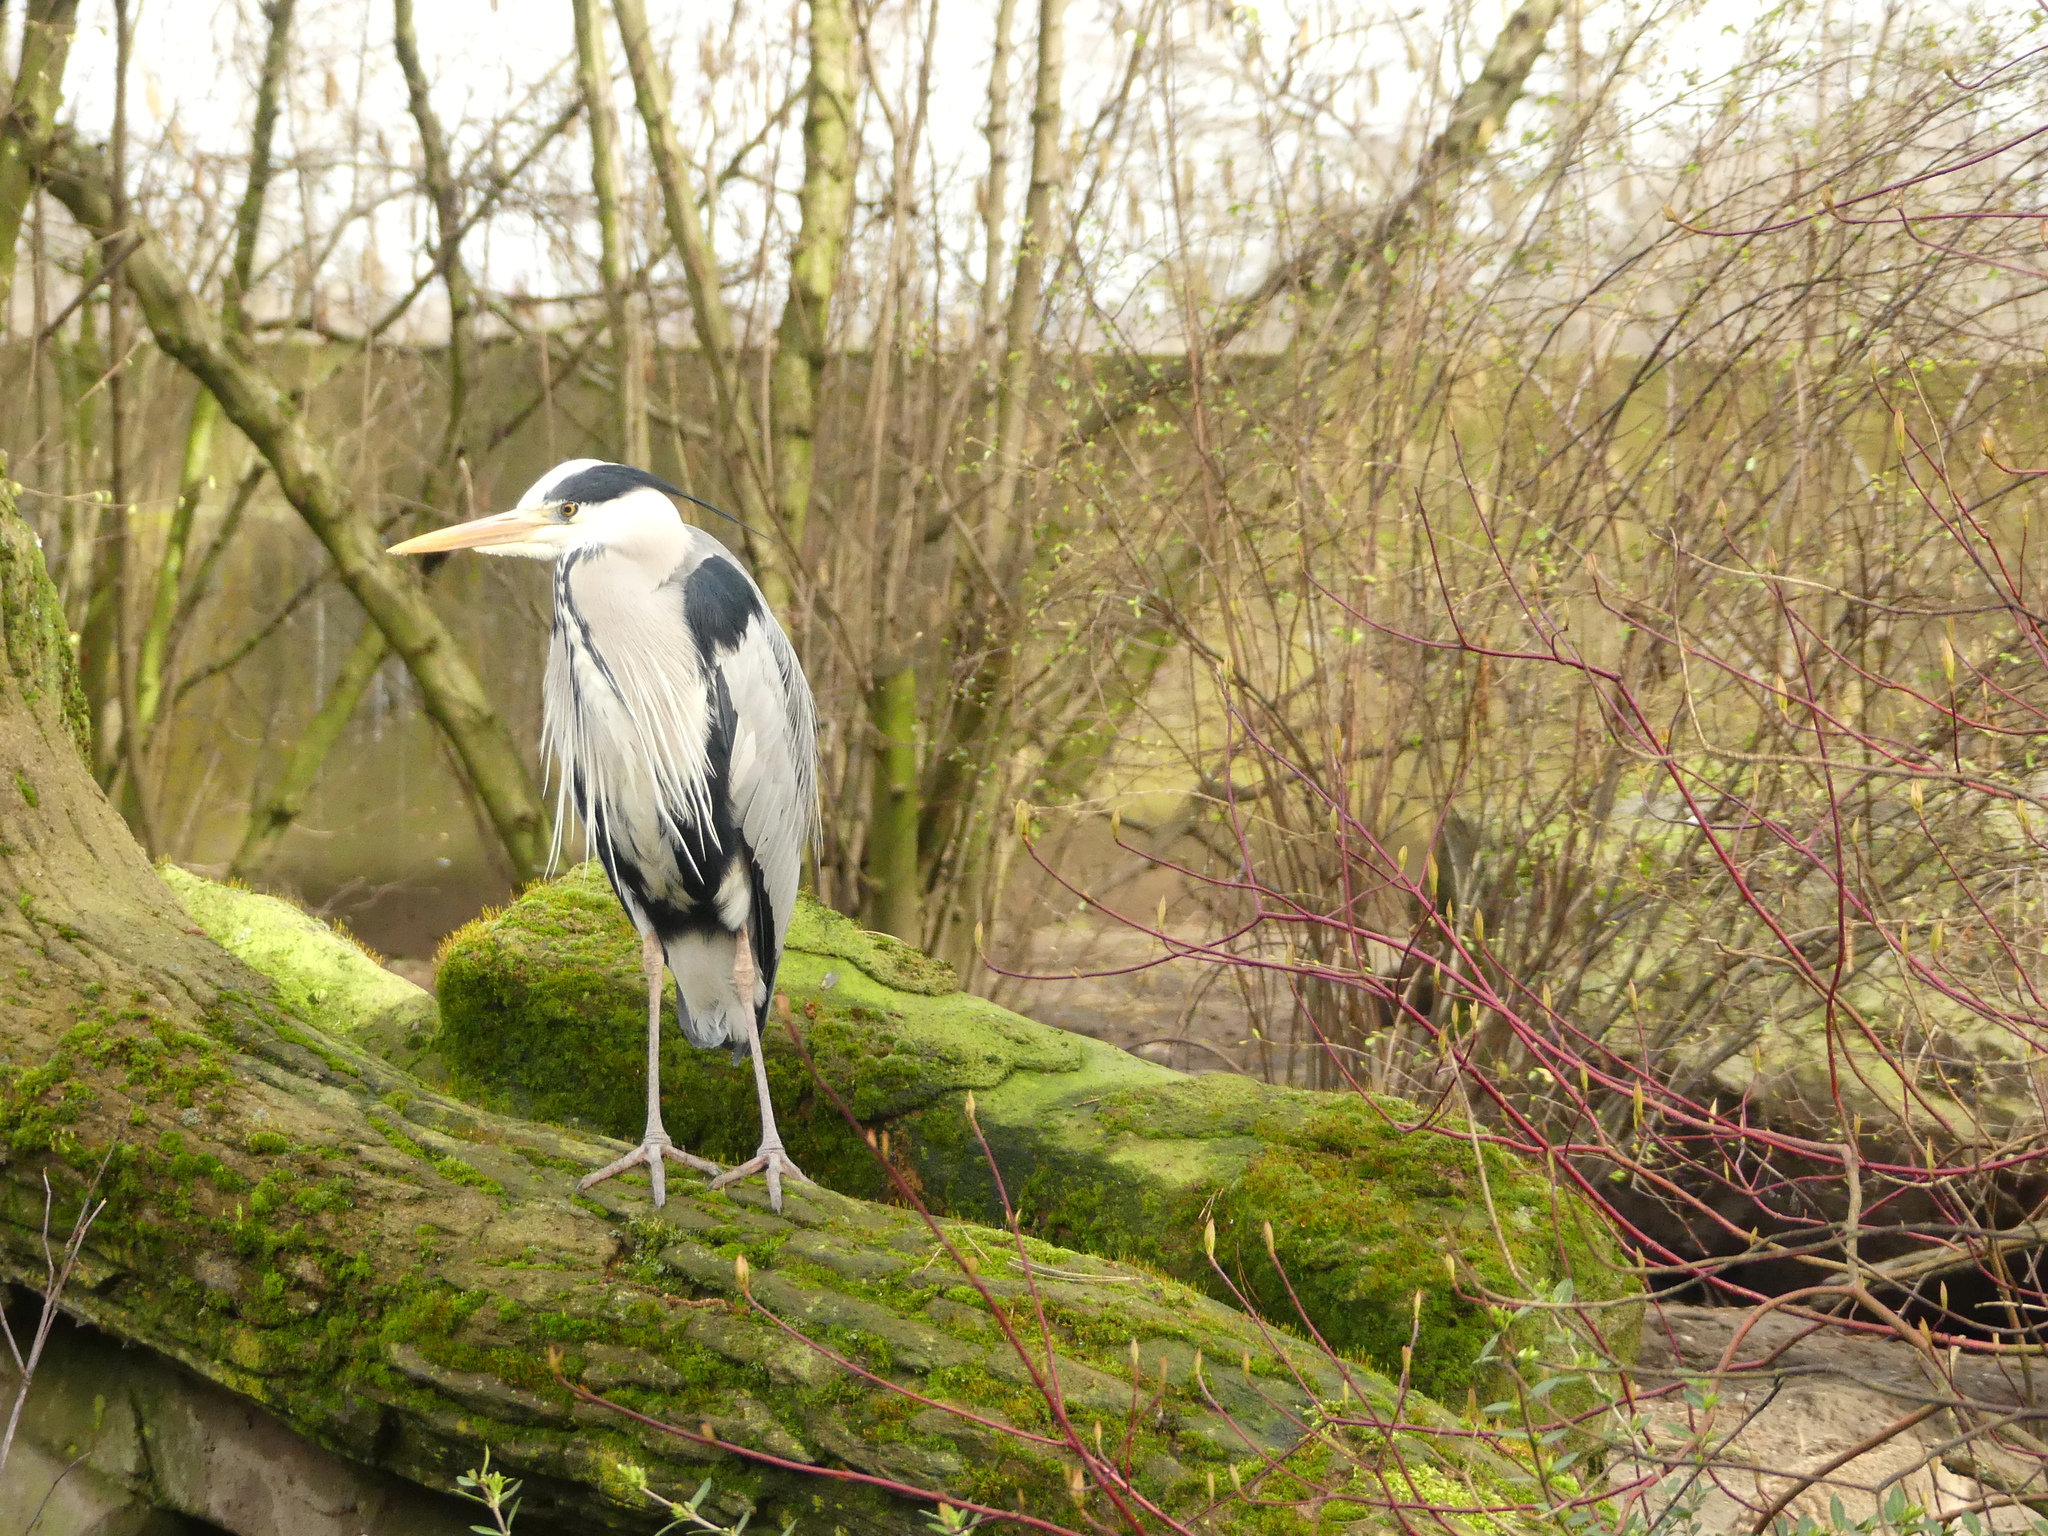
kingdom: Animalia
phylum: Chordata
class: Aves
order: Pelecaniformes
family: Ardeidae
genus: Ardea
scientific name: Ardea cinerea
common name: Grey heron
